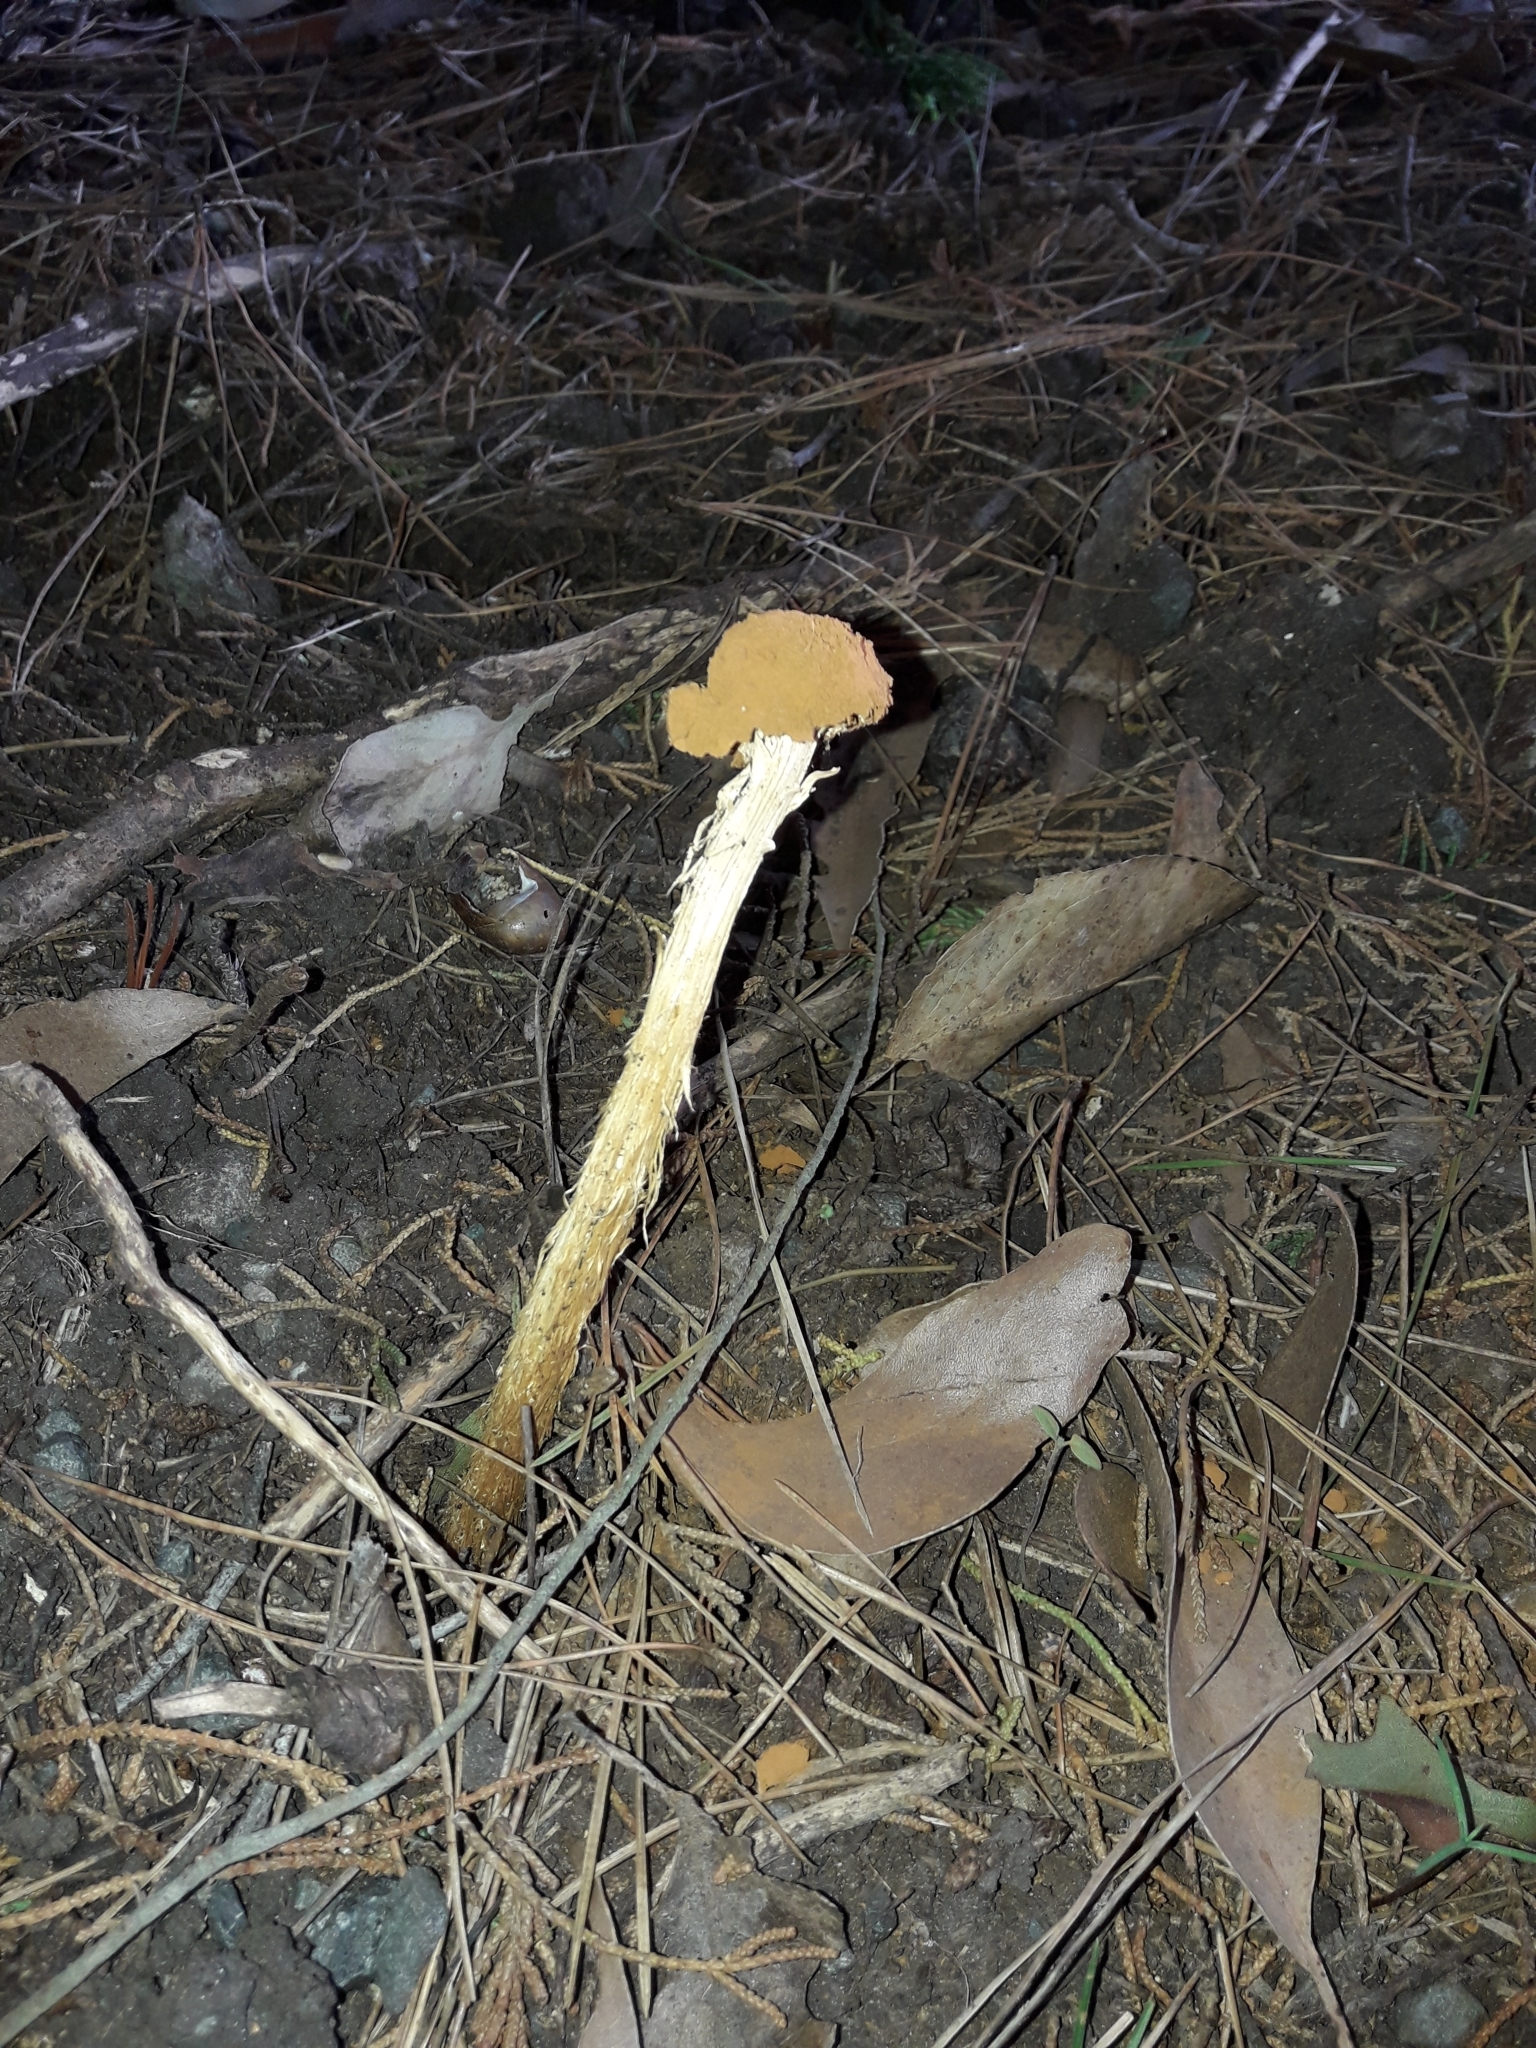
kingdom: Fungi
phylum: Basidiomycota
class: Agaricomycetes
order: Agaricales
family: Agaricaceae
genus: Battarrea
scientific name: Battarrea phalloides
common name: Sandy stiltball
